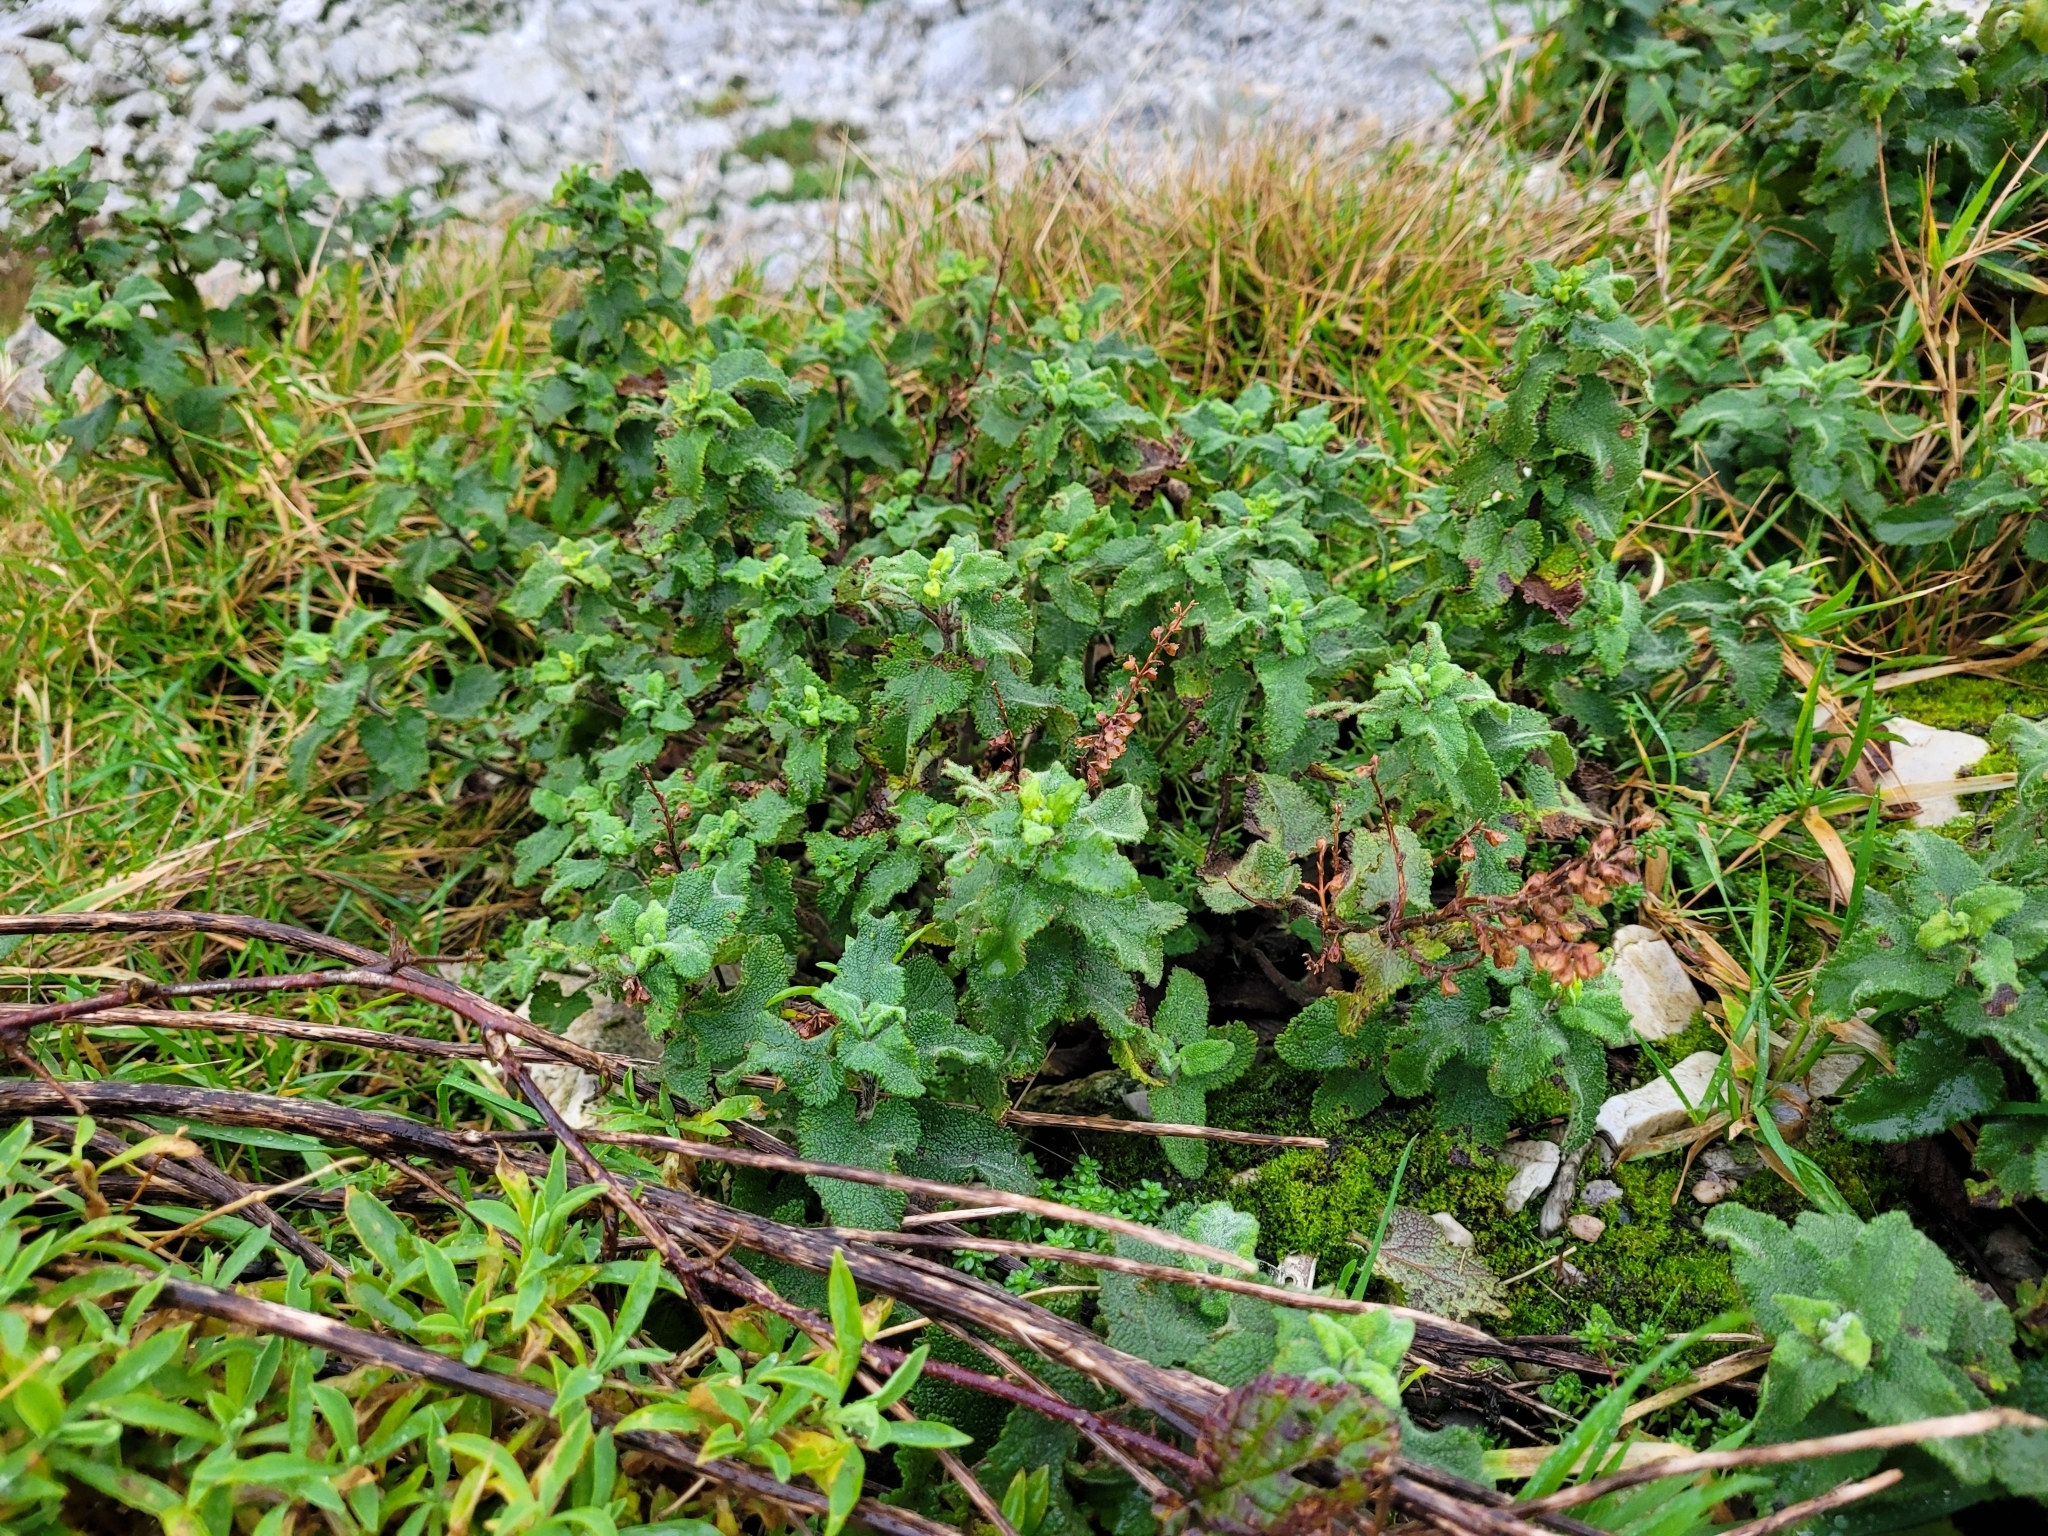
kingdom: Plantae
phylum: Tracheophyta
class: Magnoliopsida
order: Lamiales
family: Lamiaceae
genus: Teucrium
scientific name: Teucrium scorodonia
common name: Woodland germander
